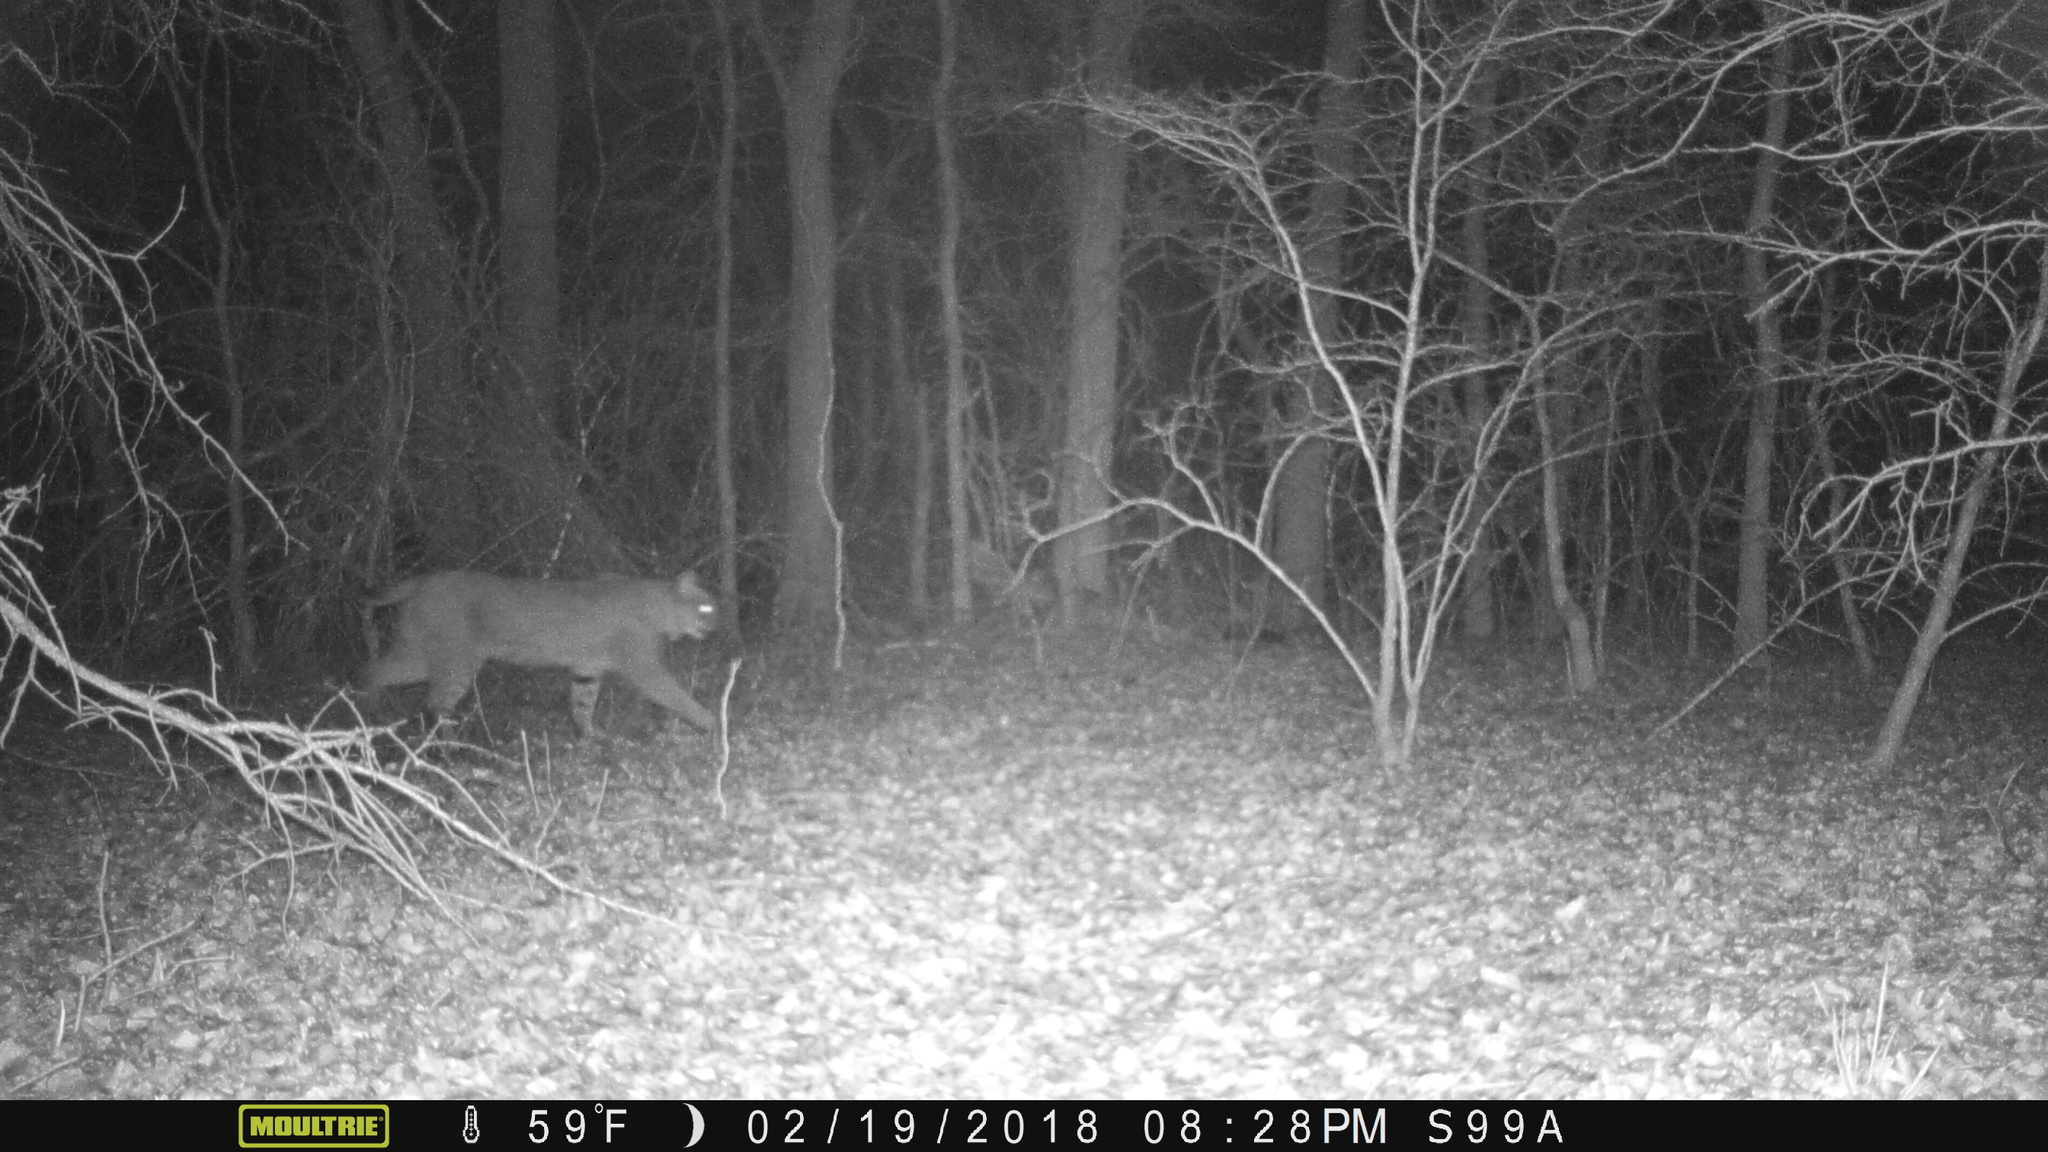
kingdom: Animalia
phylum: Chordata
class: Mammalia
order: Carnivora
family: Felidae
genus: Lynx
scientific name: Lynx rufus
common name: Bobcat
